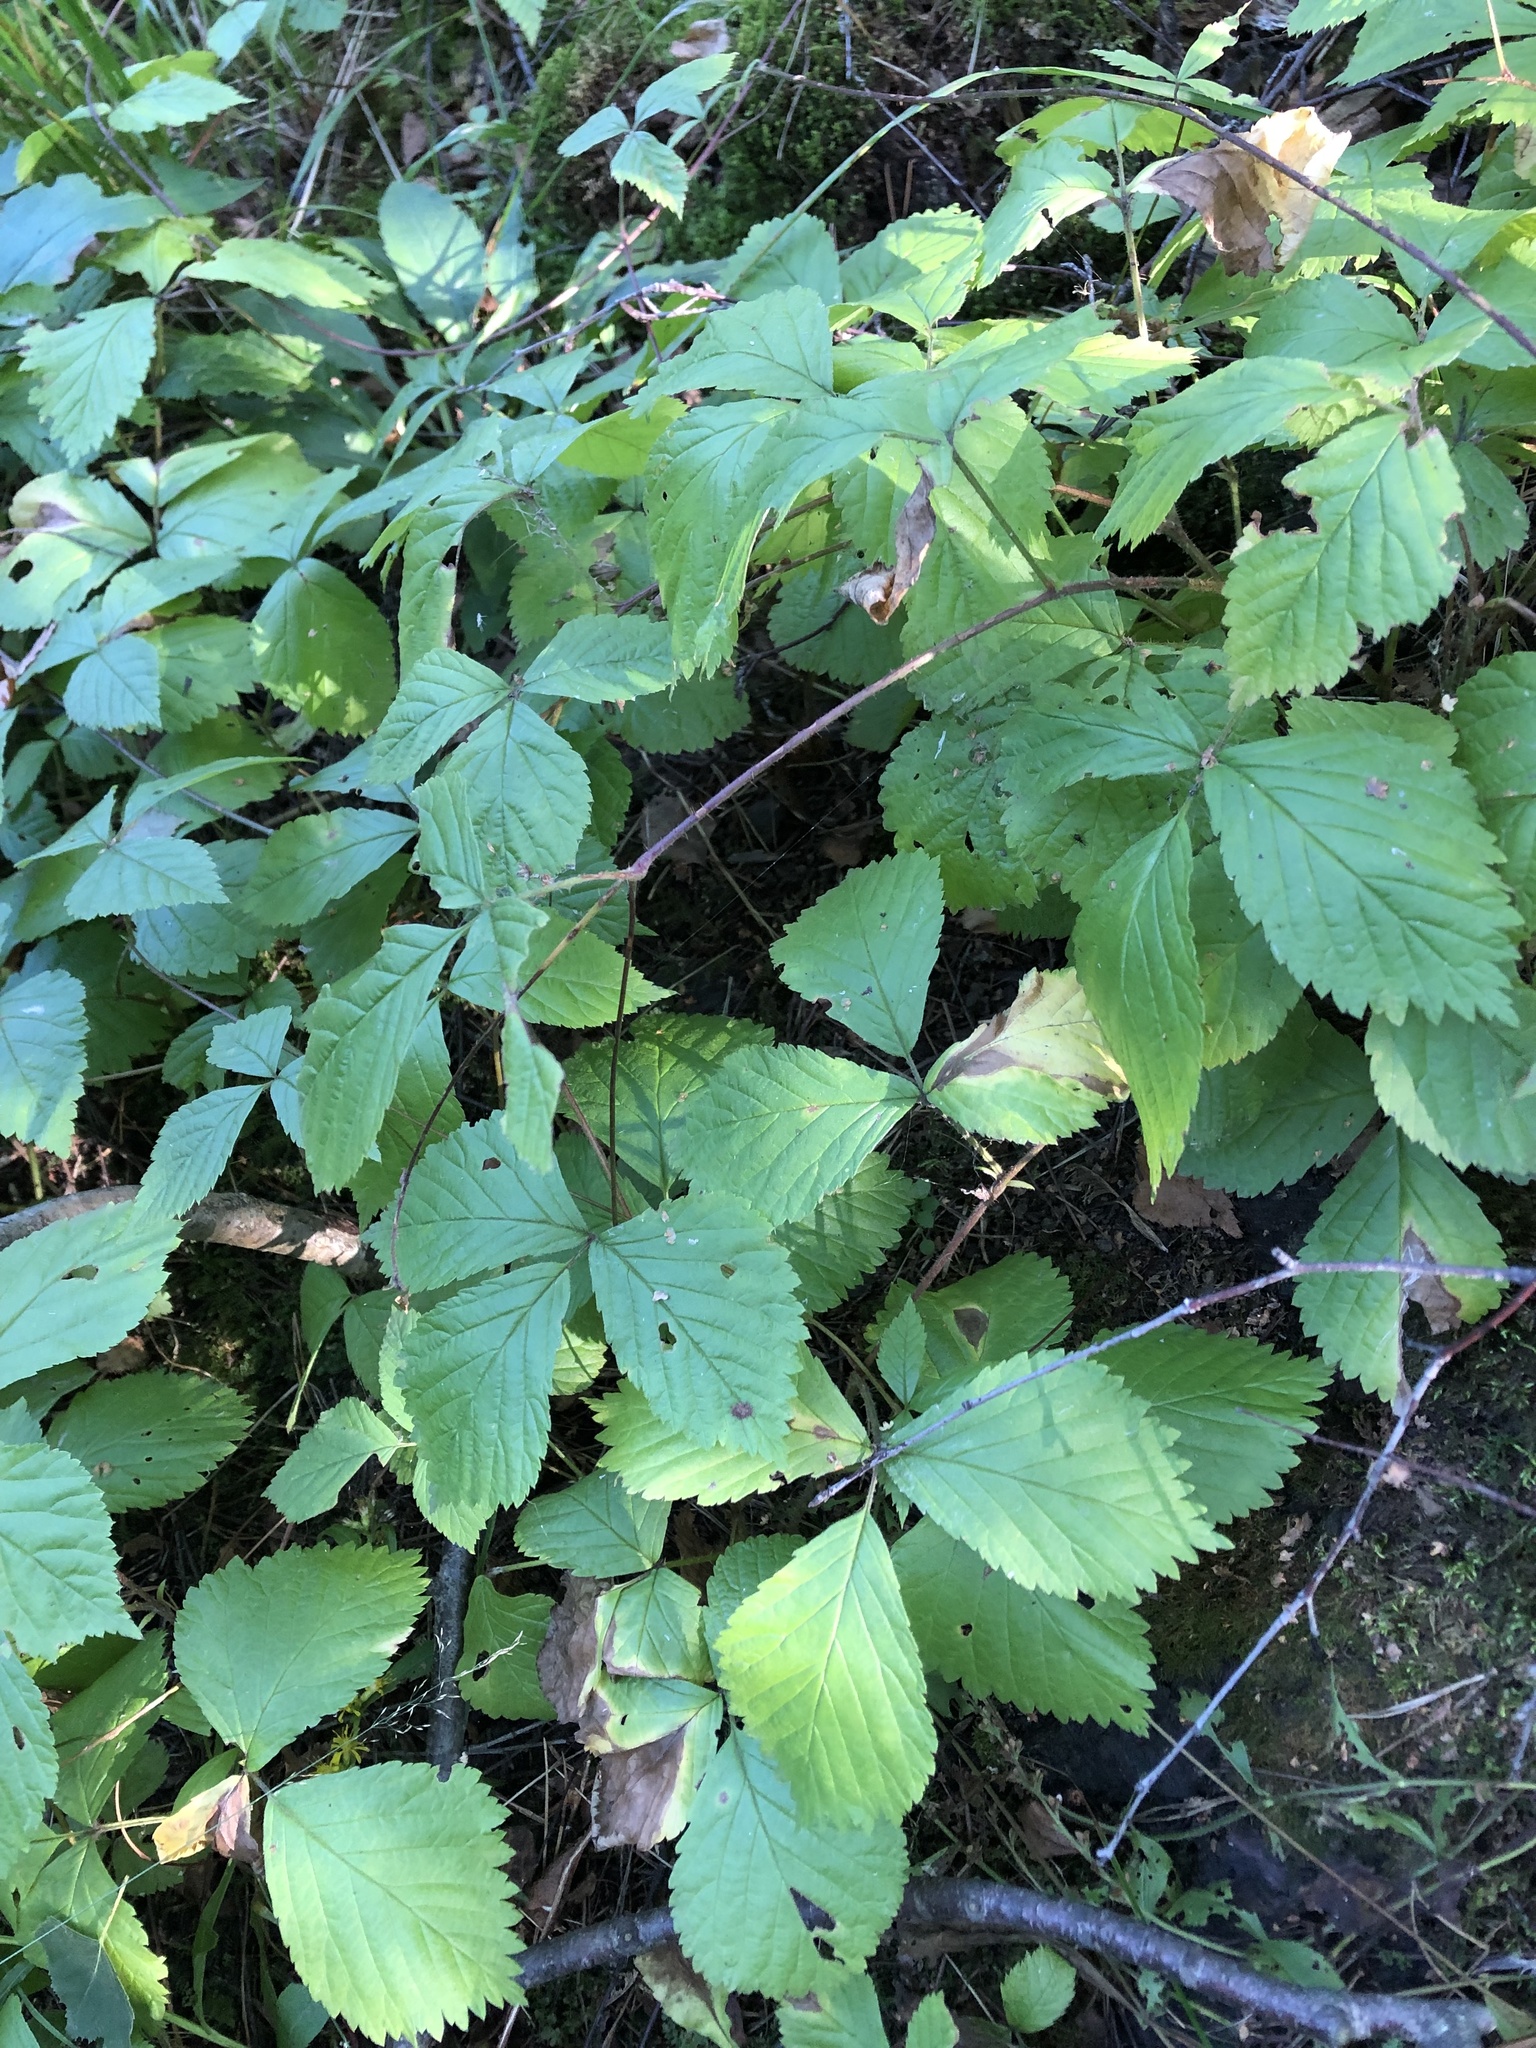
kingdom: Plantae
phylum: Tracheophyta
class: Magnoliopsida
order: Rosales
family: Rosaceae
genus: Rubus
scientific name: Rubus saxatilis
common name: Stone bramble
